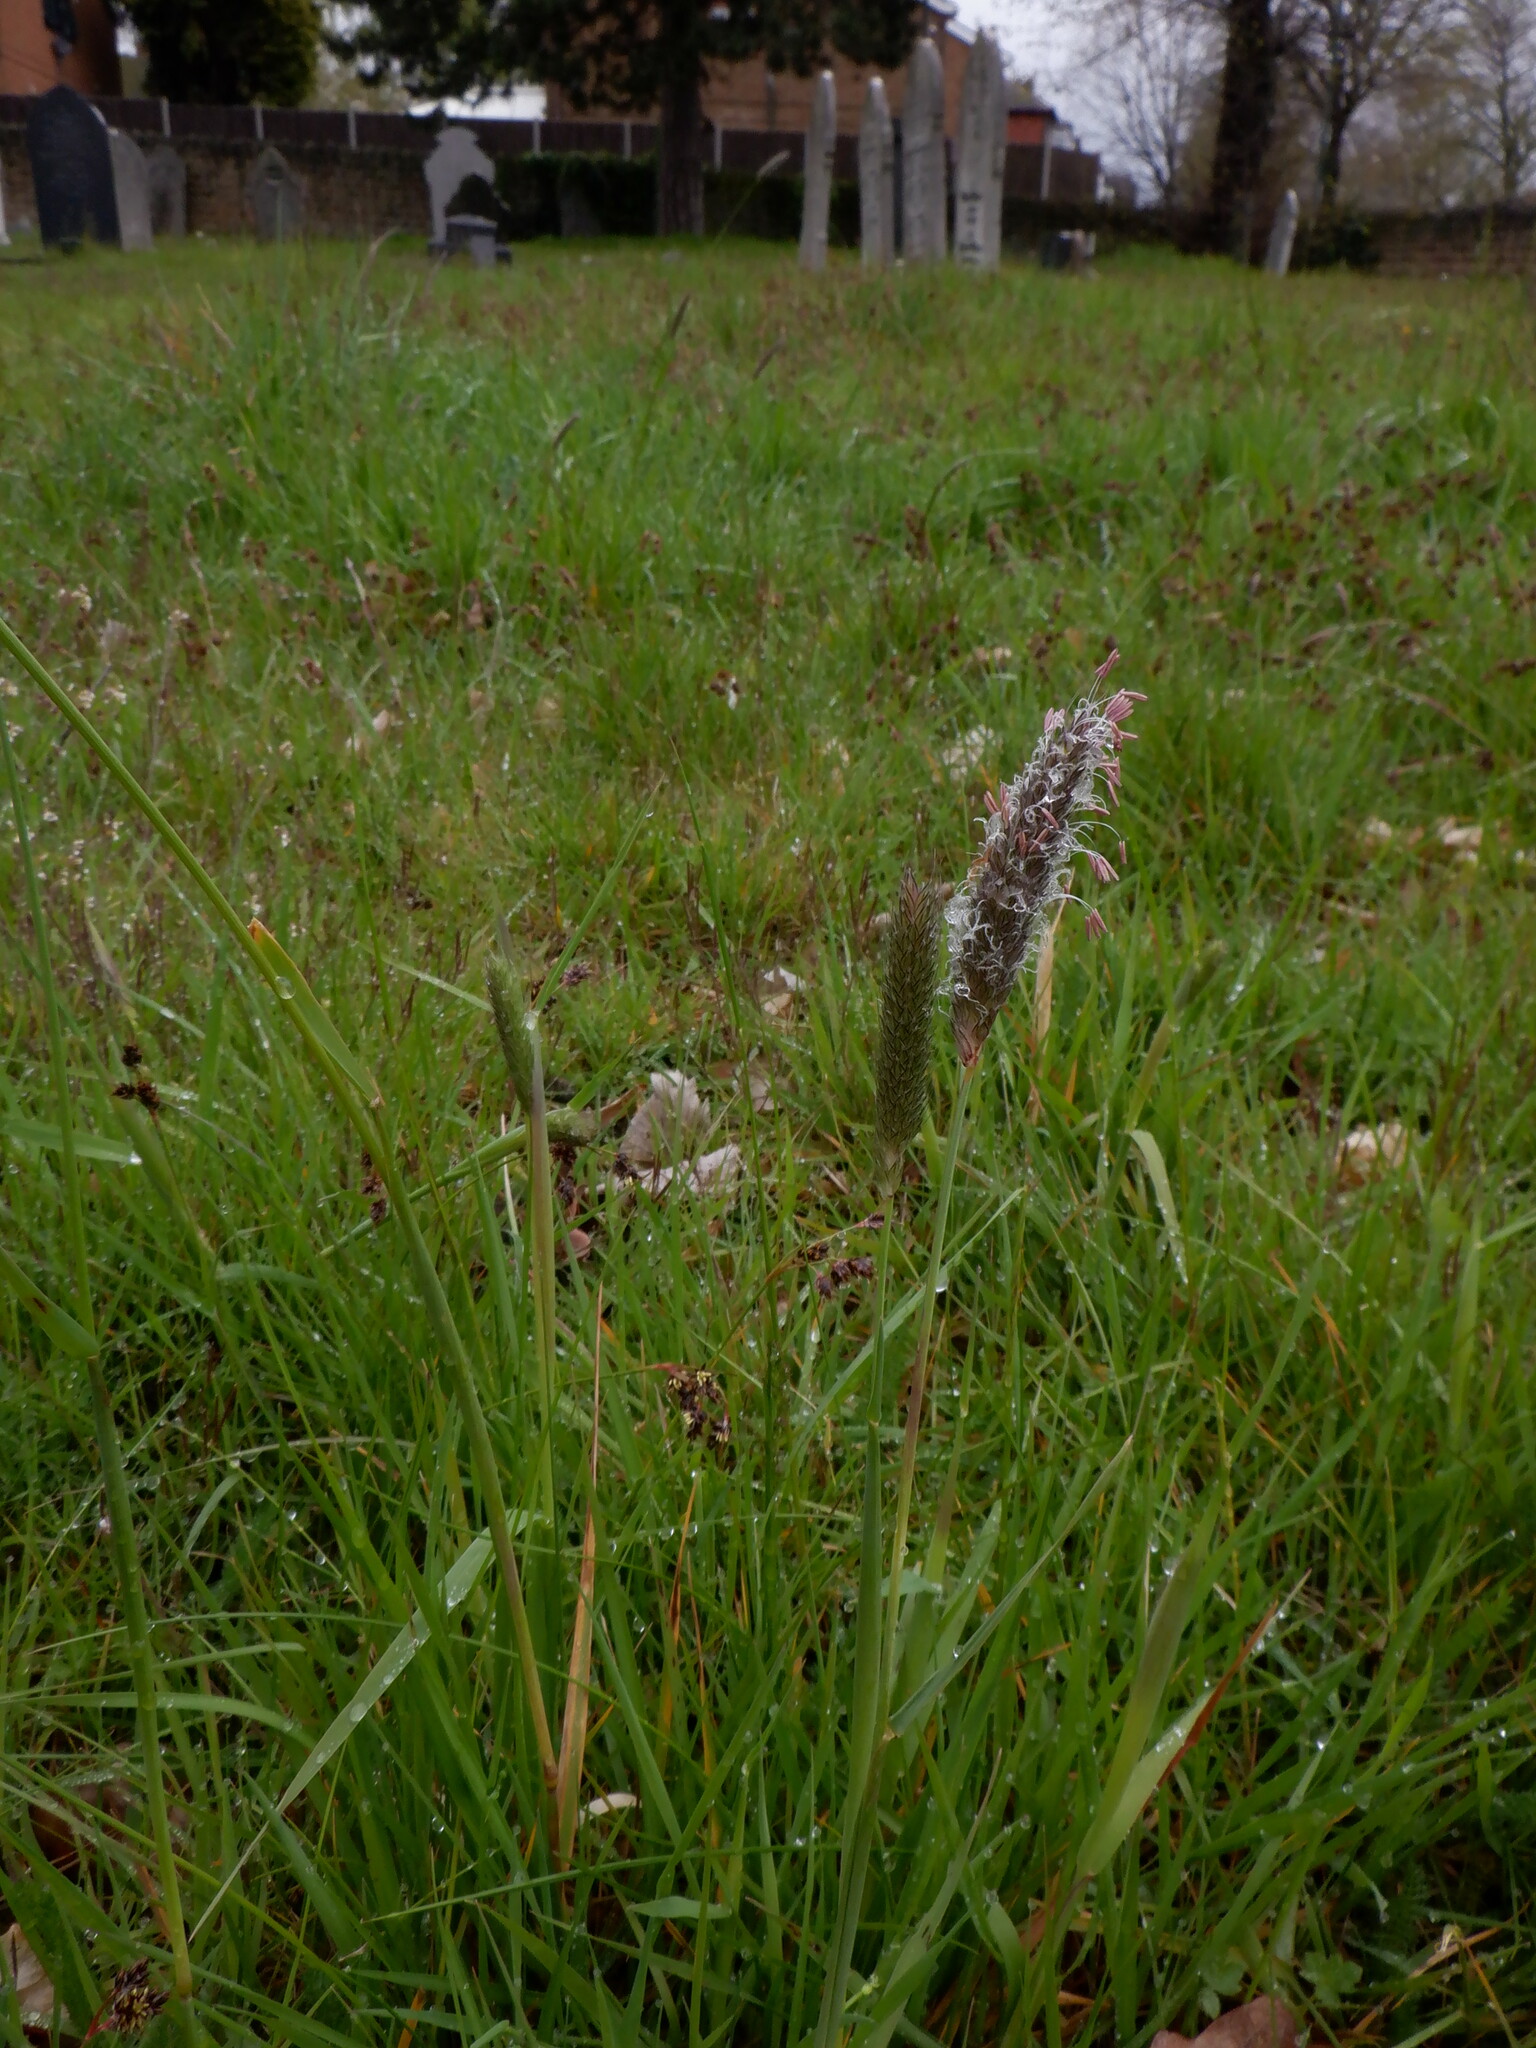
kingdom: Plantae
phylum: Tracheophyta
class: Liliopsida
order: Poales
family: Poaceae
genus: Alopecurus
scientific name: Alopecurus pratensis
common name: Meadow foxtail
